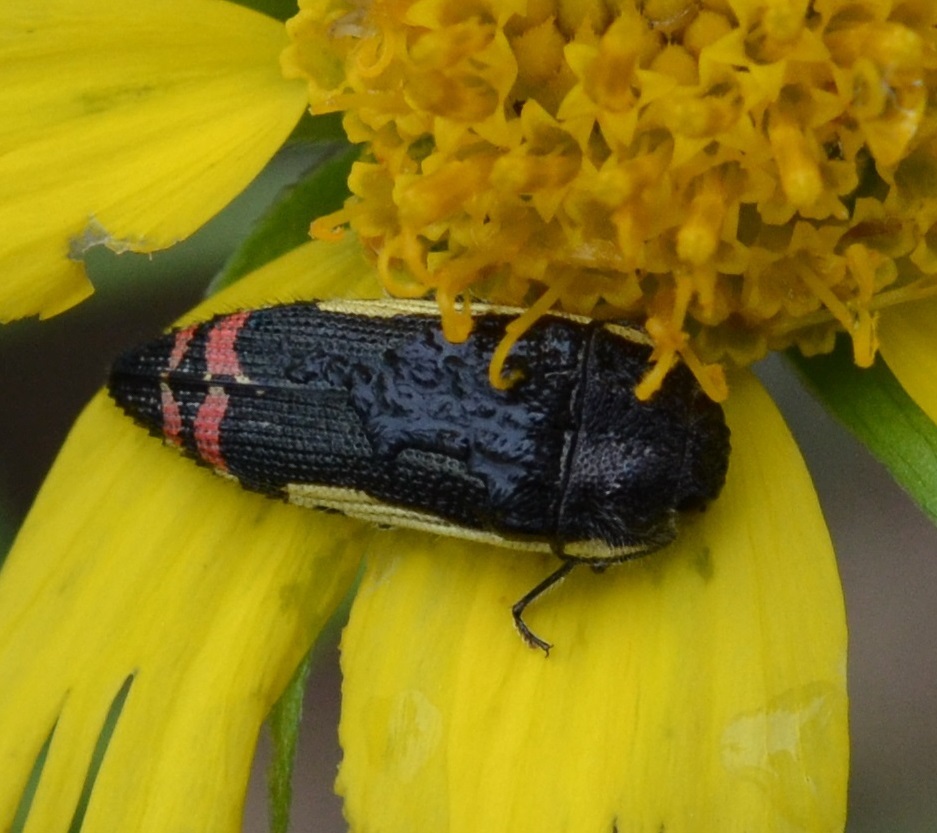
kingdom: Animalia
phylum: Arthropoda
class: Insecta
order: Coleoptera
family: Buprestidae
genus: Acmaeodera
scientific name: Acmaeodera flavomarginata
